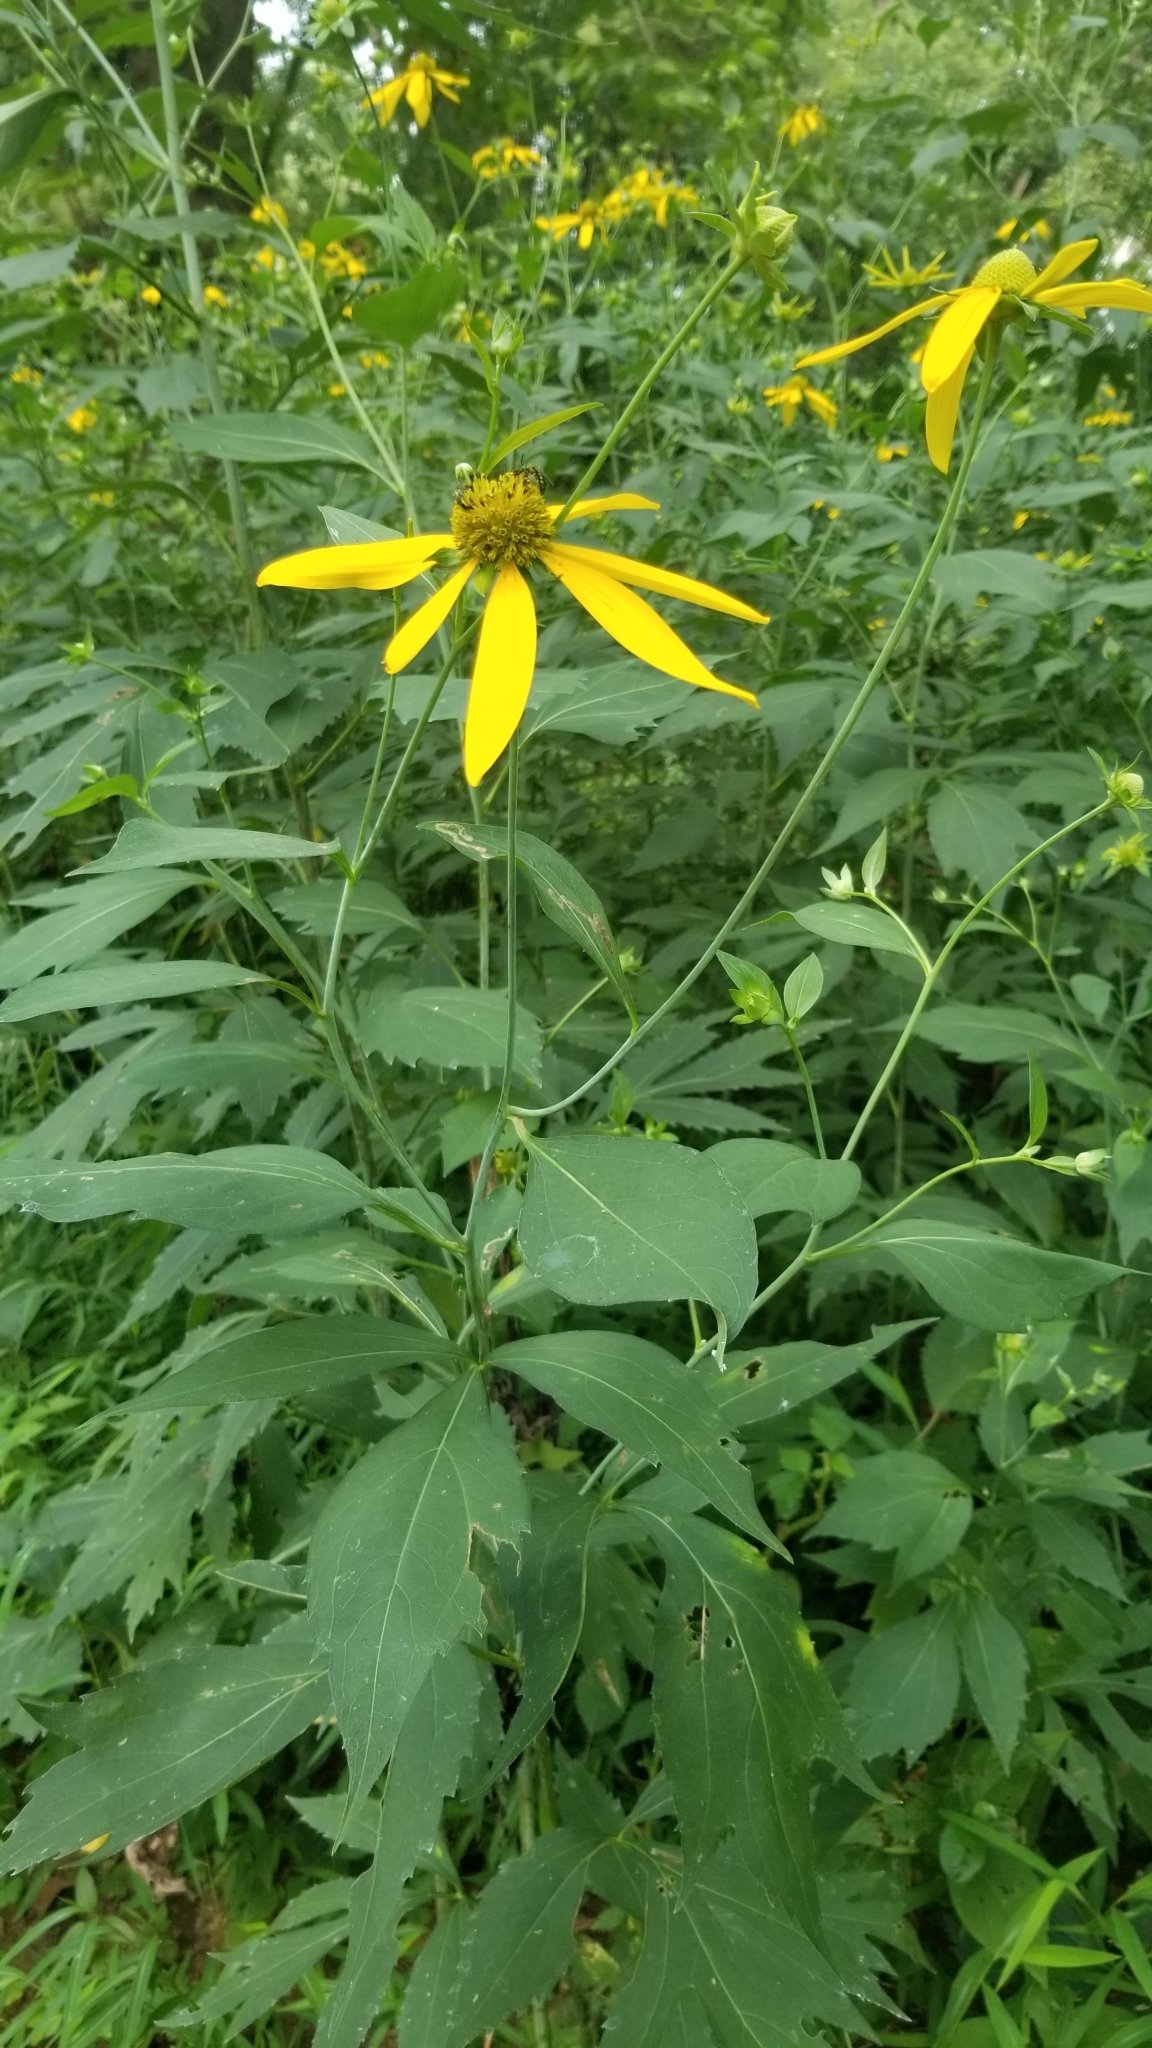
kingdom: Plantae
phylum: Tracheophyta
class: Magnoliopsida
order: Asterales
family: Asteraceae
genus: Rudbeckia
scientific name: Rudbeckia laciniata
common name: Coneflower
